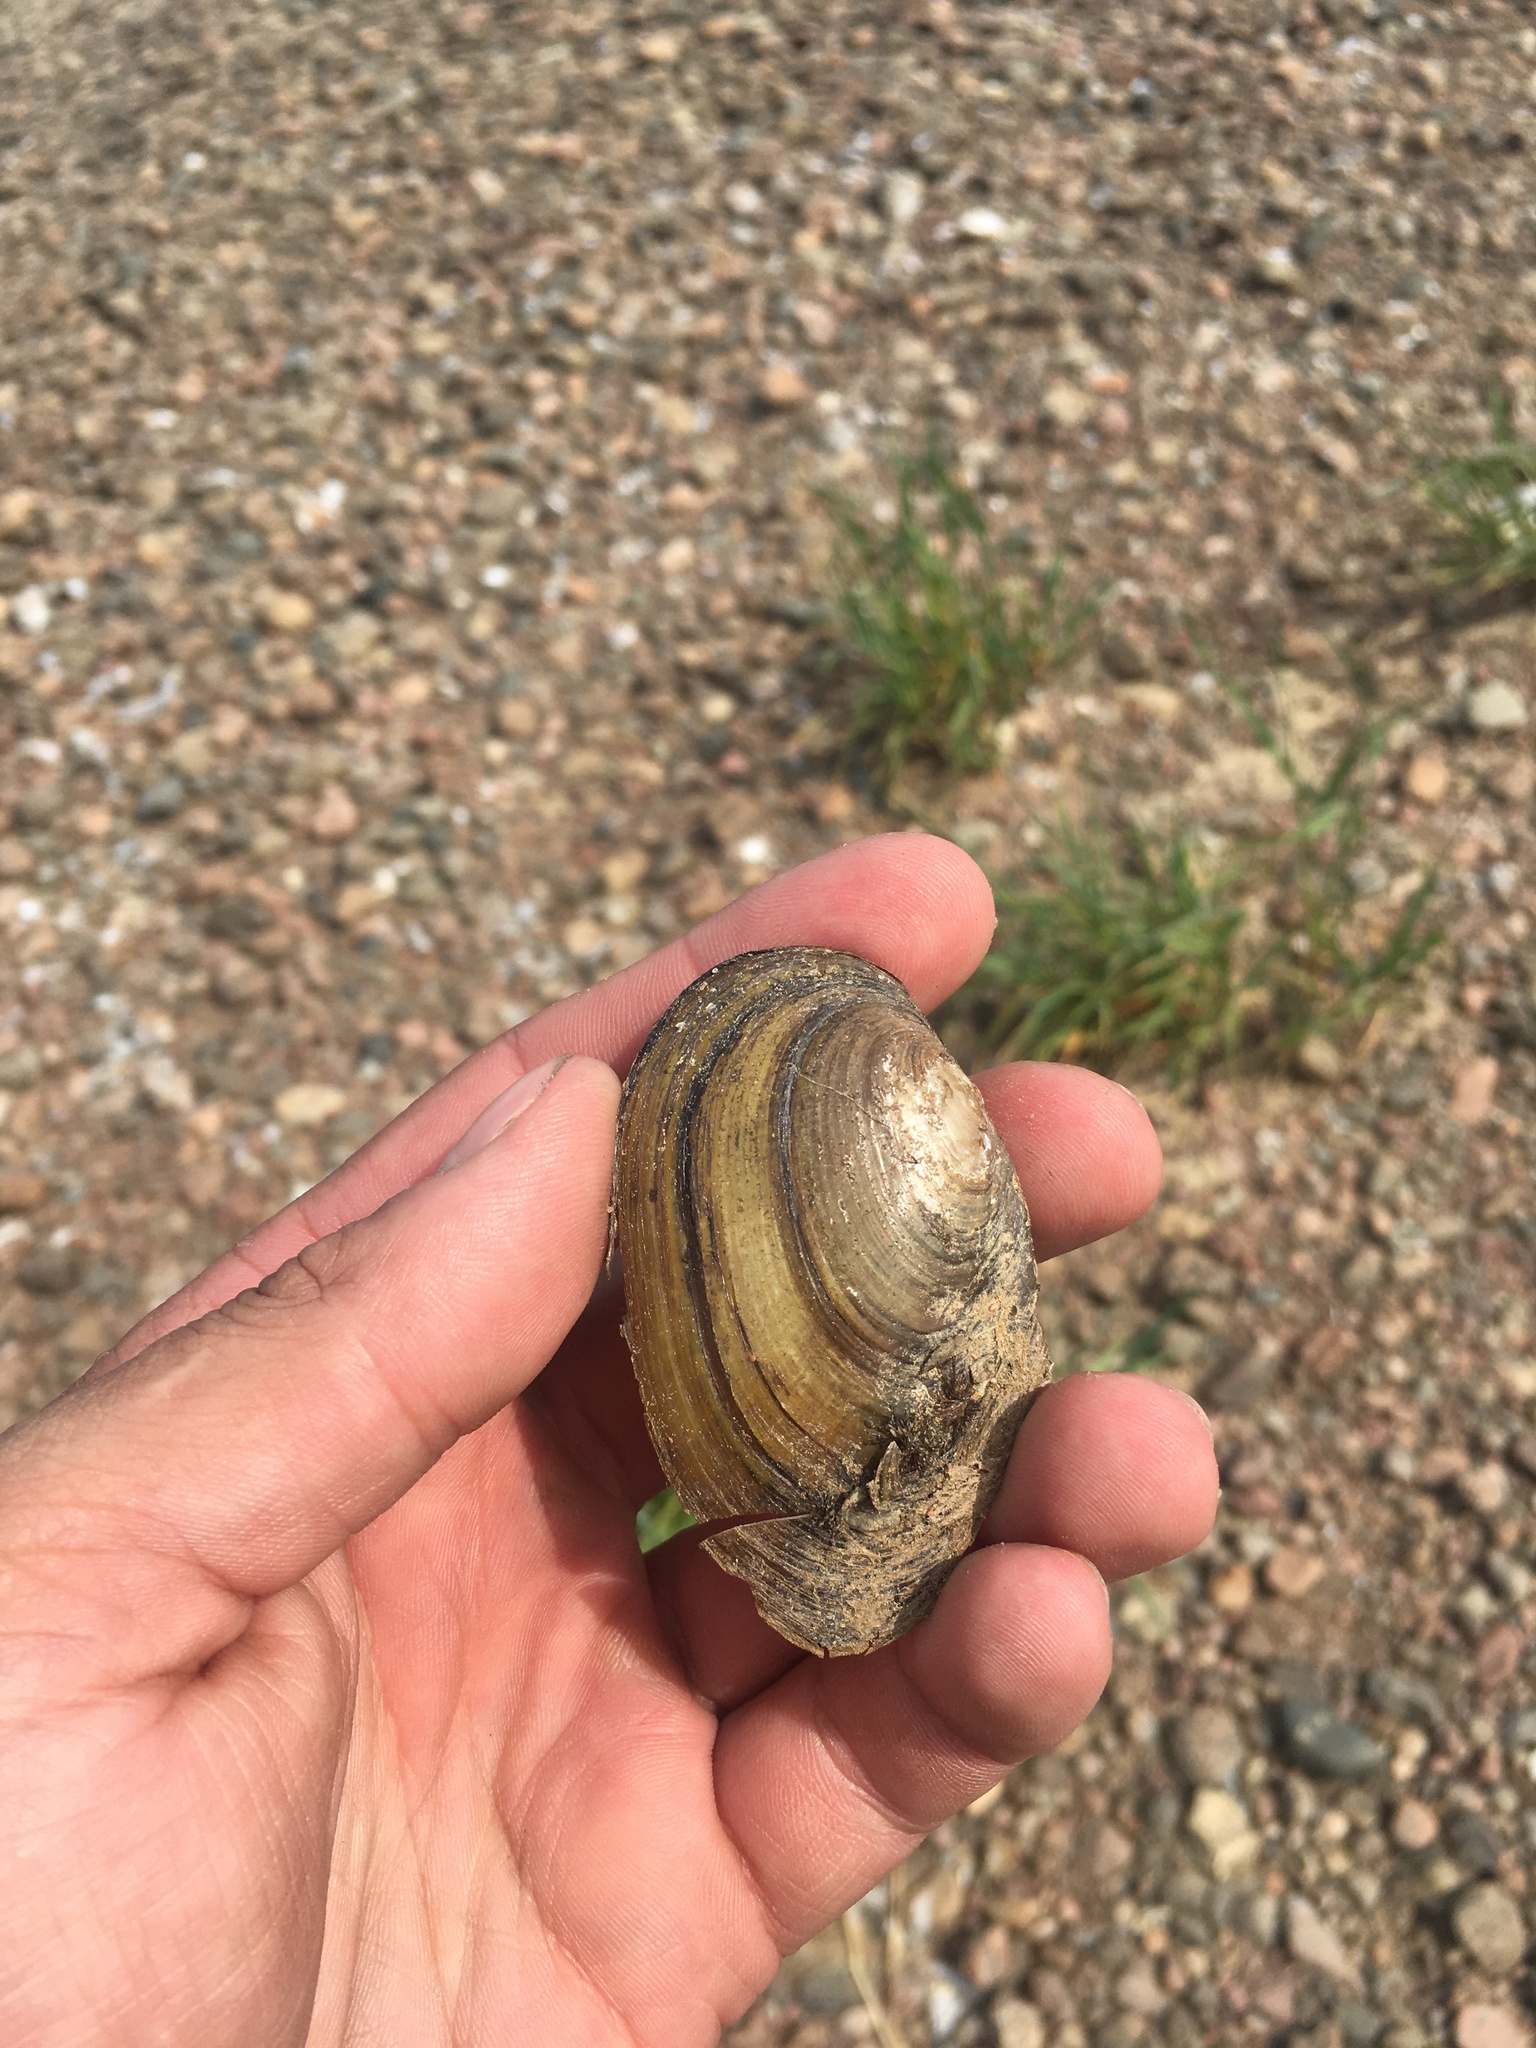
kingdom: Animalia
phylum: Mollusca
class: Bivalvia
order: Unionida
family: Unionidae
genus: Anodonta
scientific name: Anodonta anatina
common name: Duck mussel
